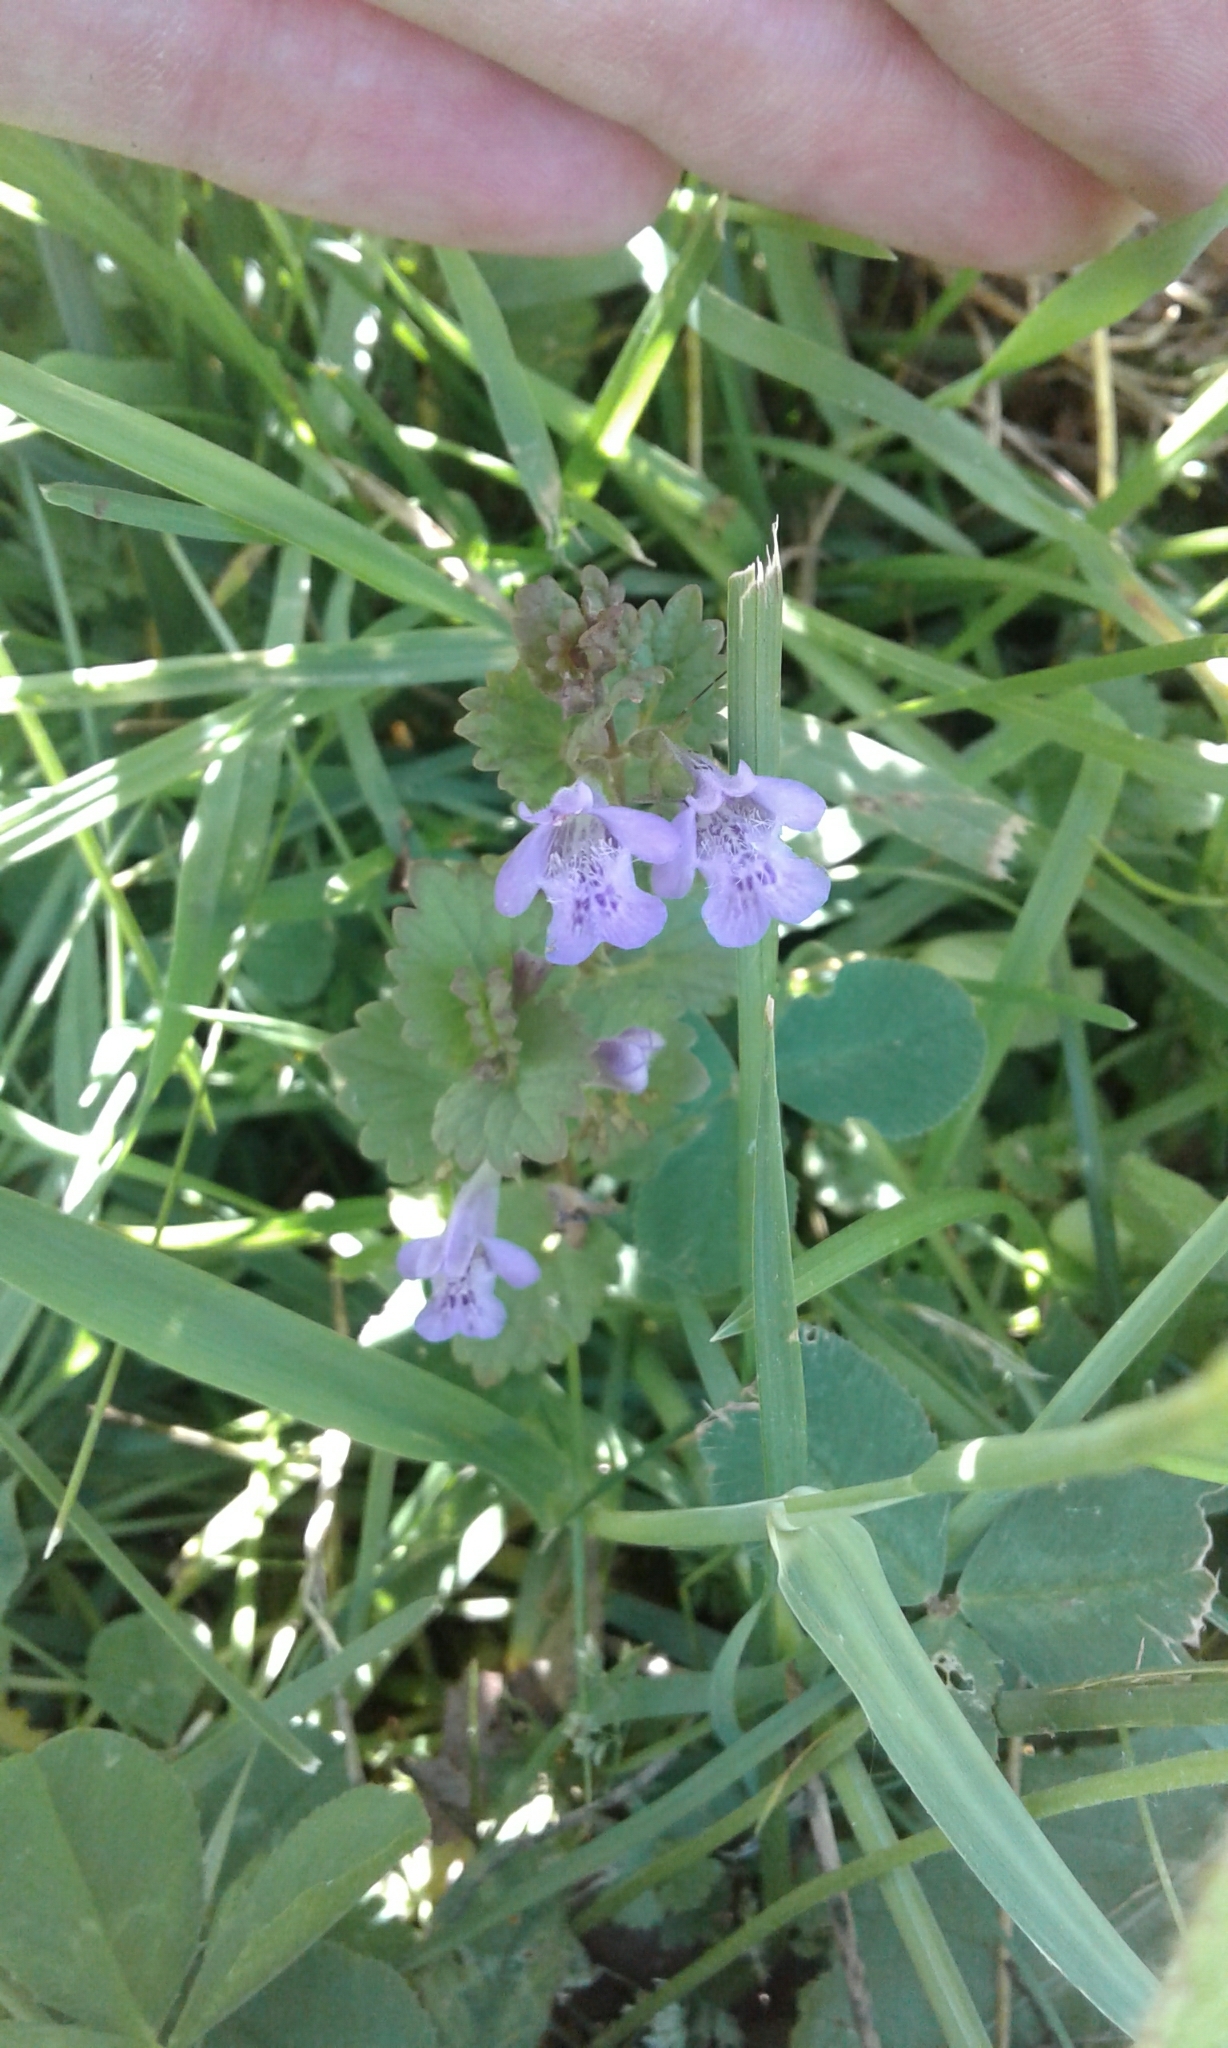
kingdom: Plantae
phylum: Tracheophyta
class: Magnoliopsida
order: Lamiales
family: Lamiaceae
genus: Glechoma
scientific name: Glechoma hederacea
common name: Ground ivy
